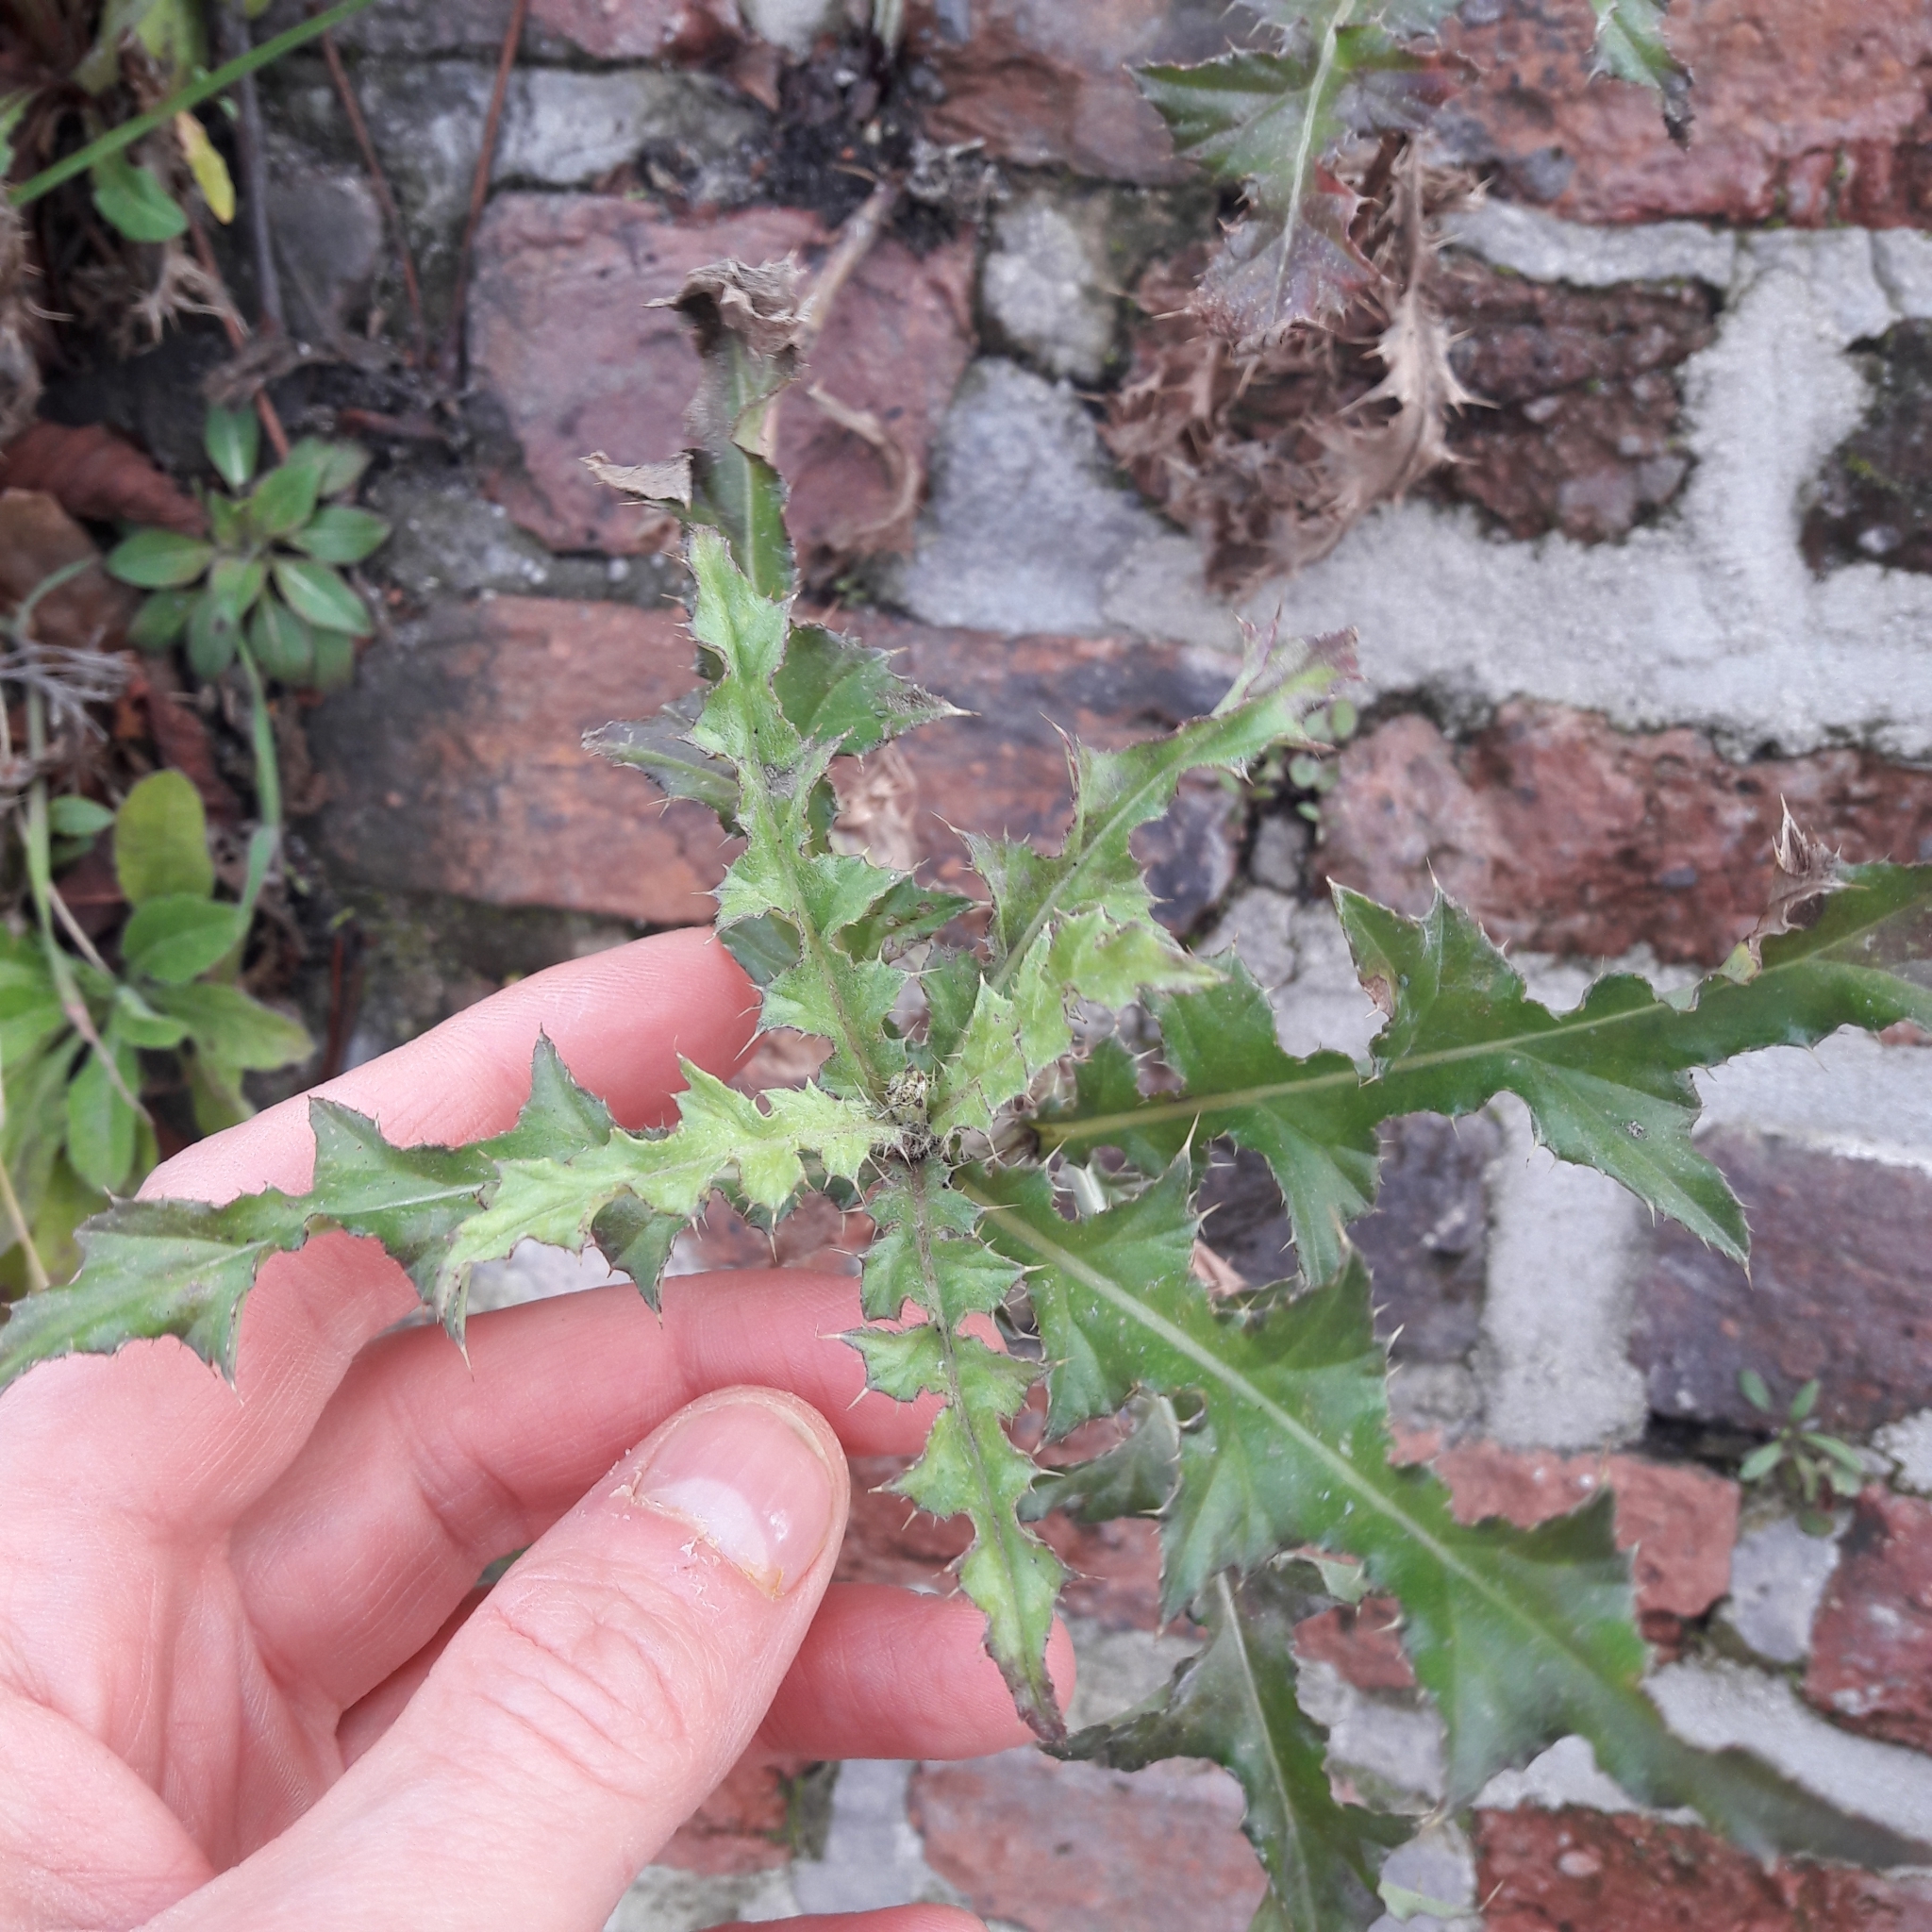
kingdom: Plantae
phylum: Tracheophyta
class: Magnoliopsida
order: Asterales
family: Asteraceae
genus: Cirsium
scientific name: Cirsium arvense
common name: Creeping thistle
